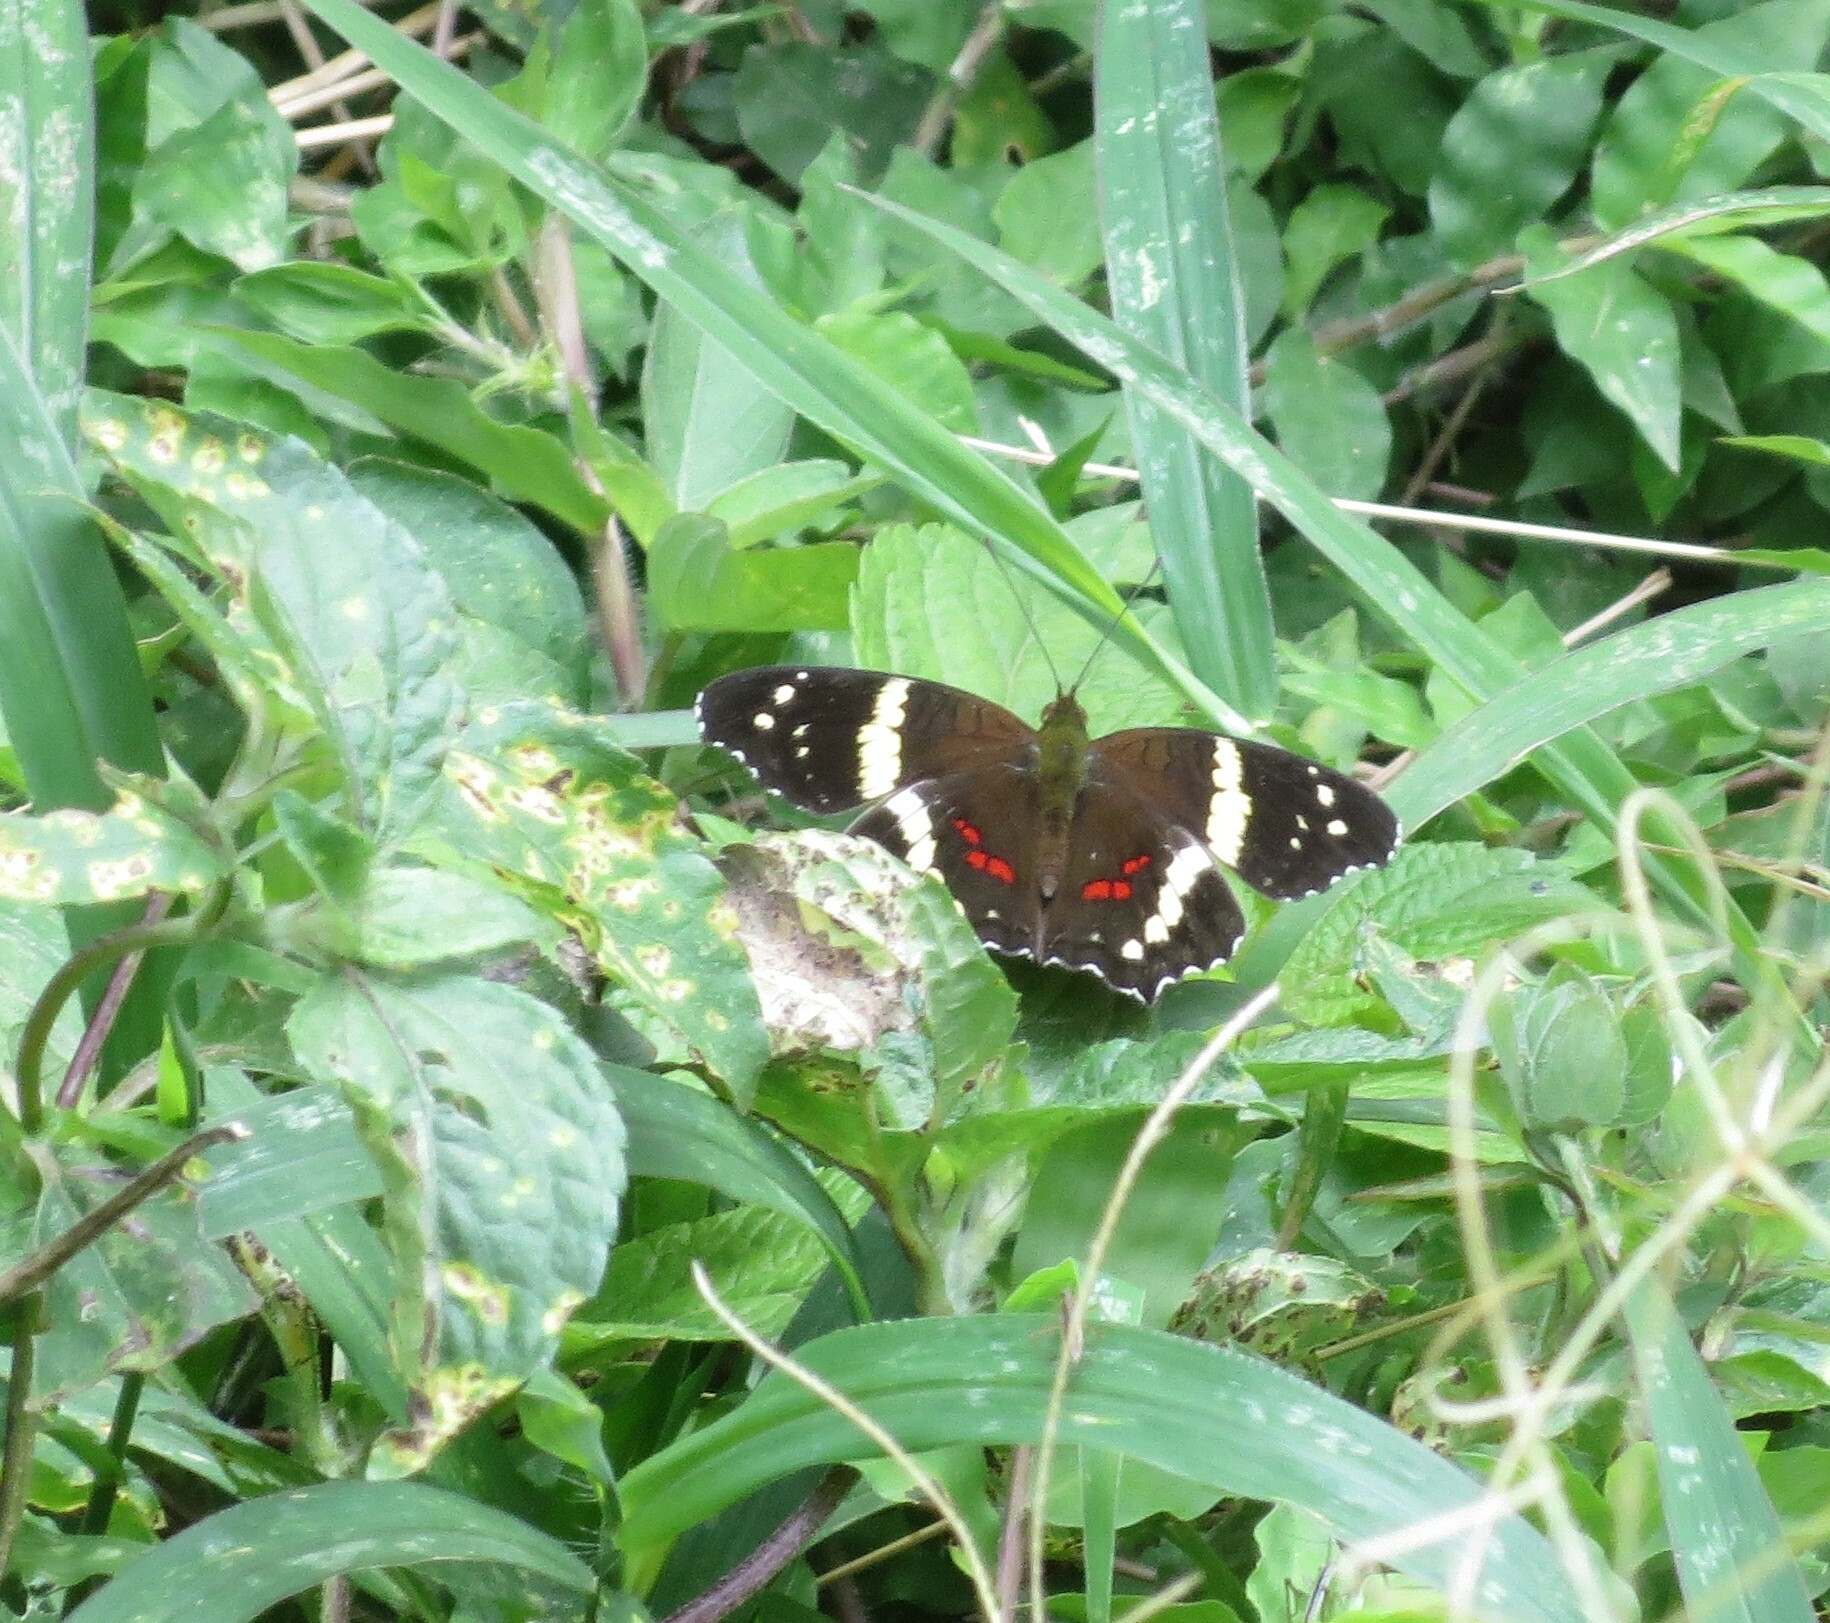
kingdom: Animalia
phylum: Arthropoda
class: Insecta
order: Lepidoptera
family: Nymphalidae
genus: Anartia
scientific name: Anartia fatima
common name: Banded peacock
